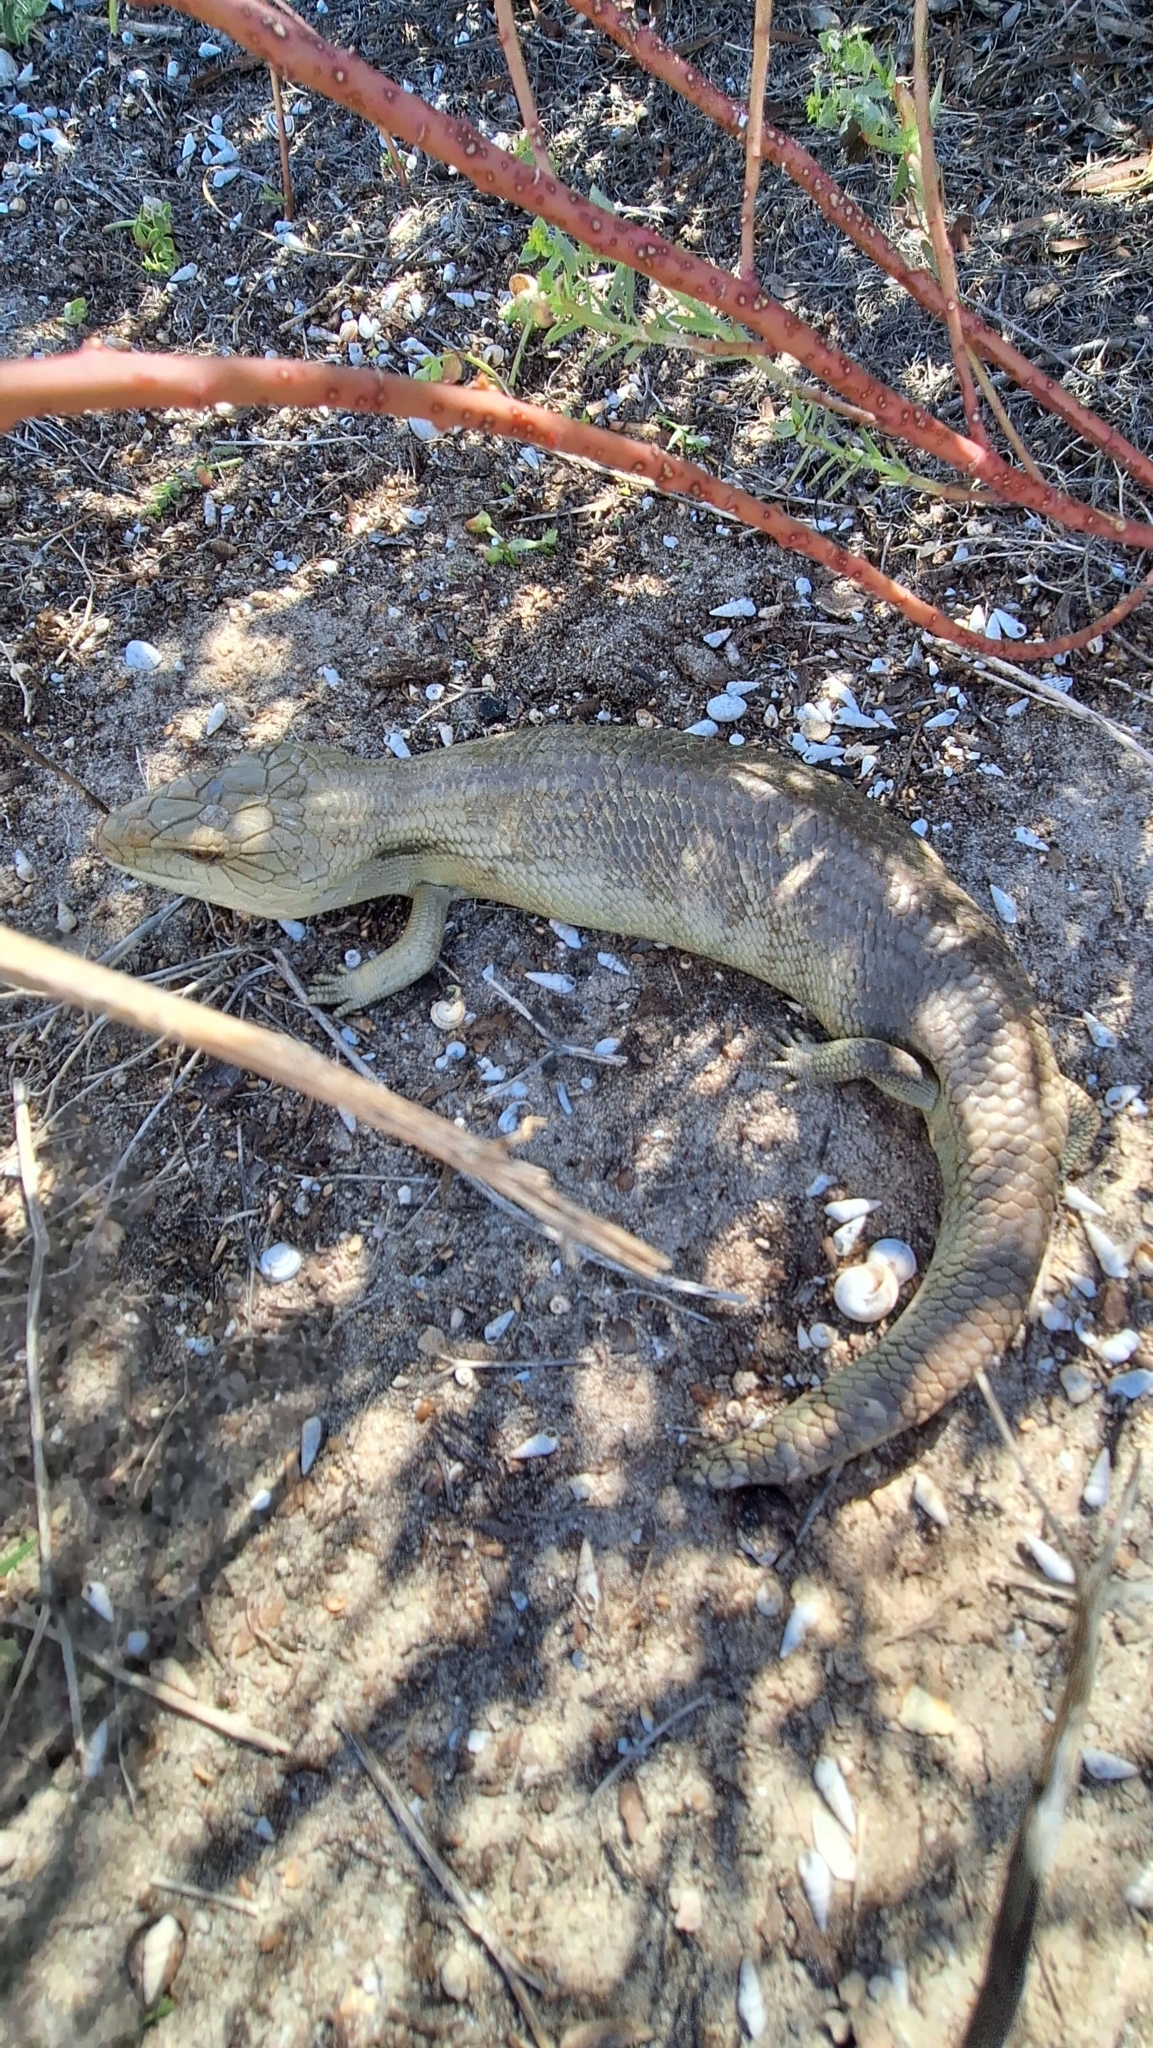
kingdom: Animalia
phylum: Chordata
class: Squamata
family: Scincidae
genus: Tiliqua
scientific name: Tiliqua scincoides
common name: Common bluetongue
